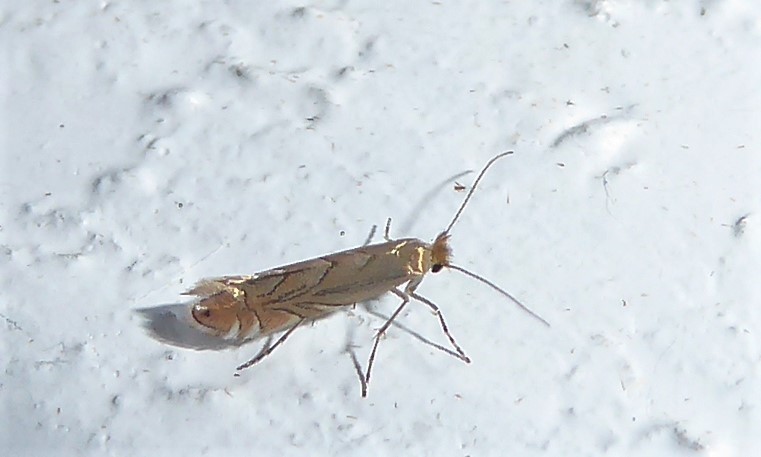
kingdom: Animalia
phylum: Arthropoda
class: Insecta
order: Lepidoptera
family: Gracillariidae
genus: Phyllonorycter
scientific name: Phyllonorycter messaniella
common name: Garden midget
